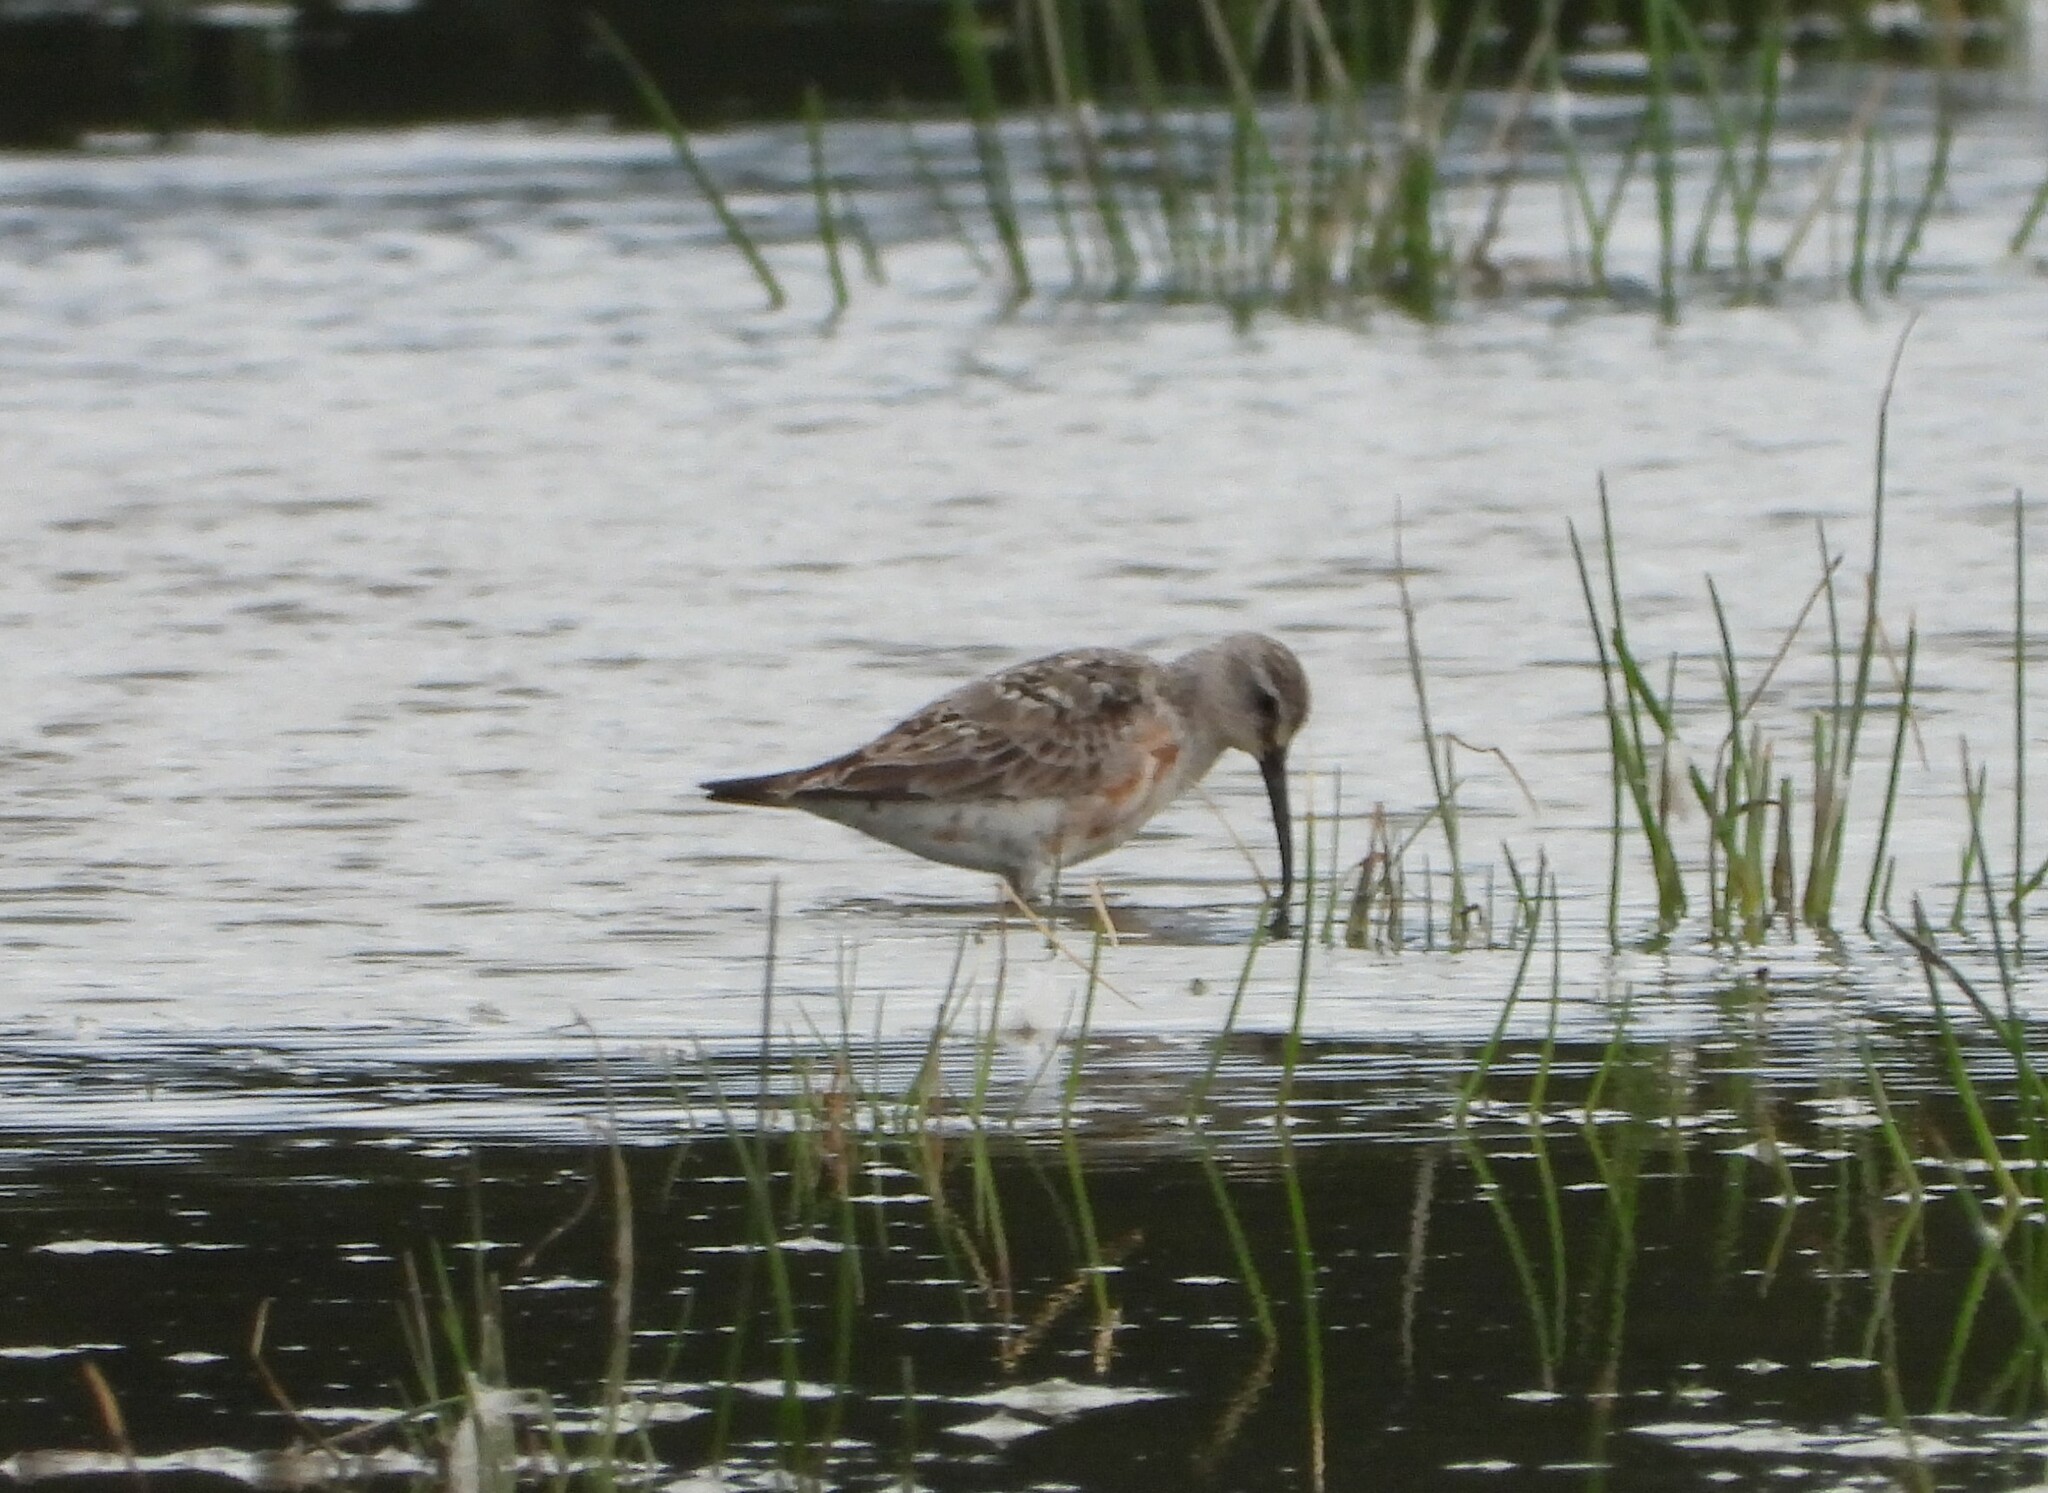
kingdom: Animalia
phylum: Chordata
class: Aves
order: Charadriiformes
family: Scolopacidae
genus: Calidris
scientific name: Calidris ferruginea
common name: Curlew sandpiper
